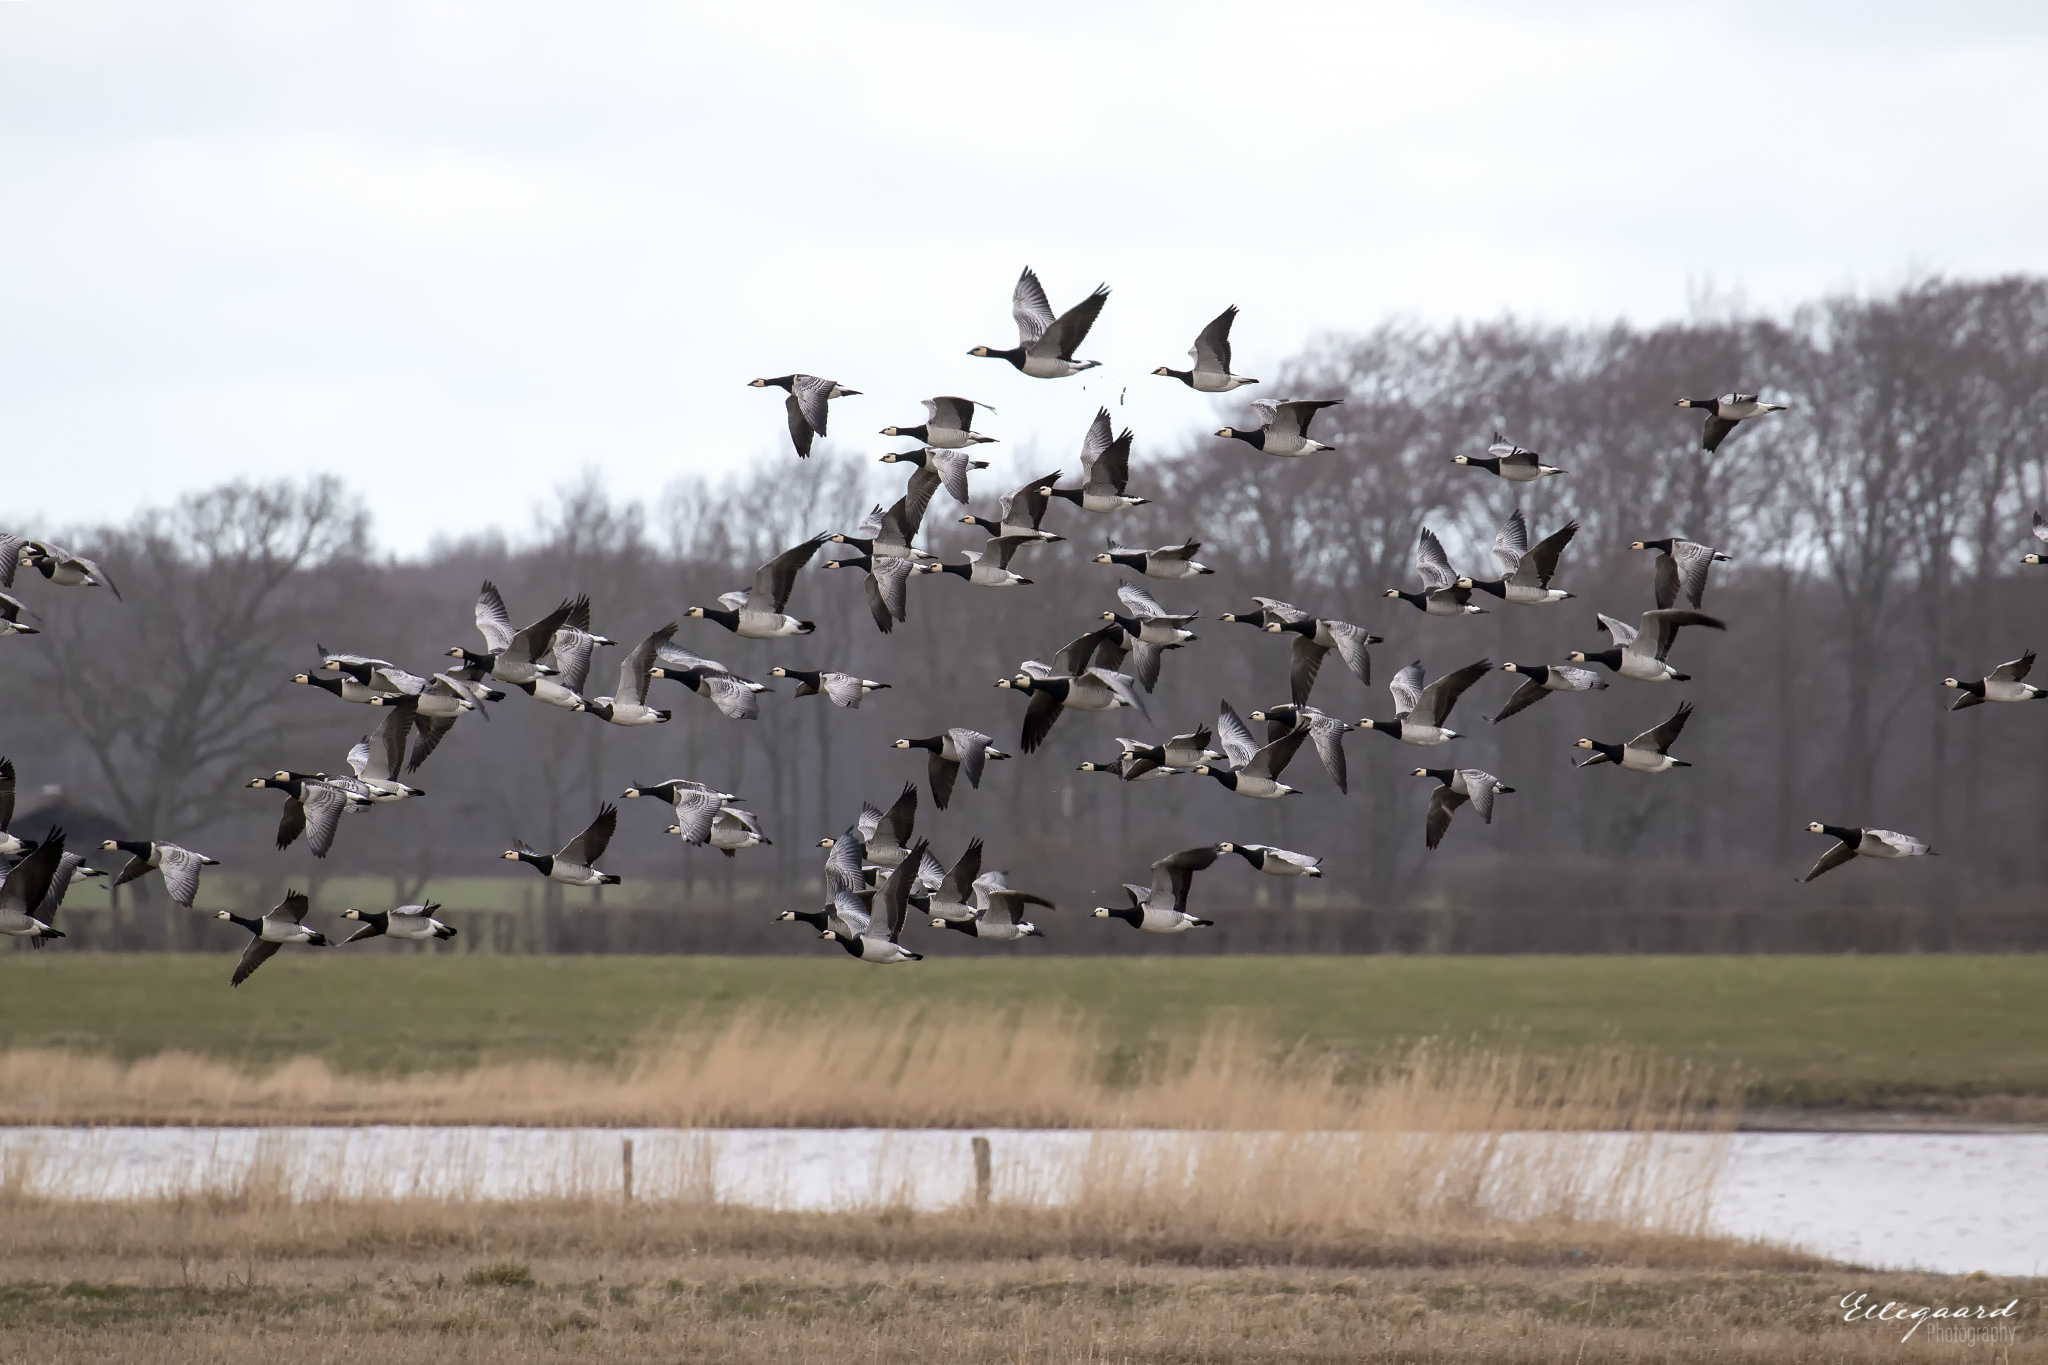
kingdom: Animalia
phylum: Chordata
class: Aves
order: Anseriformes
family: Anatidae
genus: Branta
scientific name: Branta leucopsis
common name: Barnacle goose
